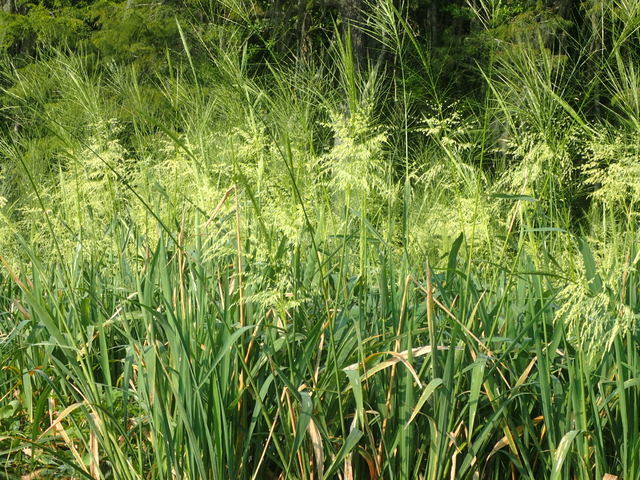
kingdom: Plantae
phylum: Tracheophyta
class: Liliopsida
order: Poales
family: Poaceae
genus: Zizania
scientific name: Zizania aquatica
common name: Annual wildrice
